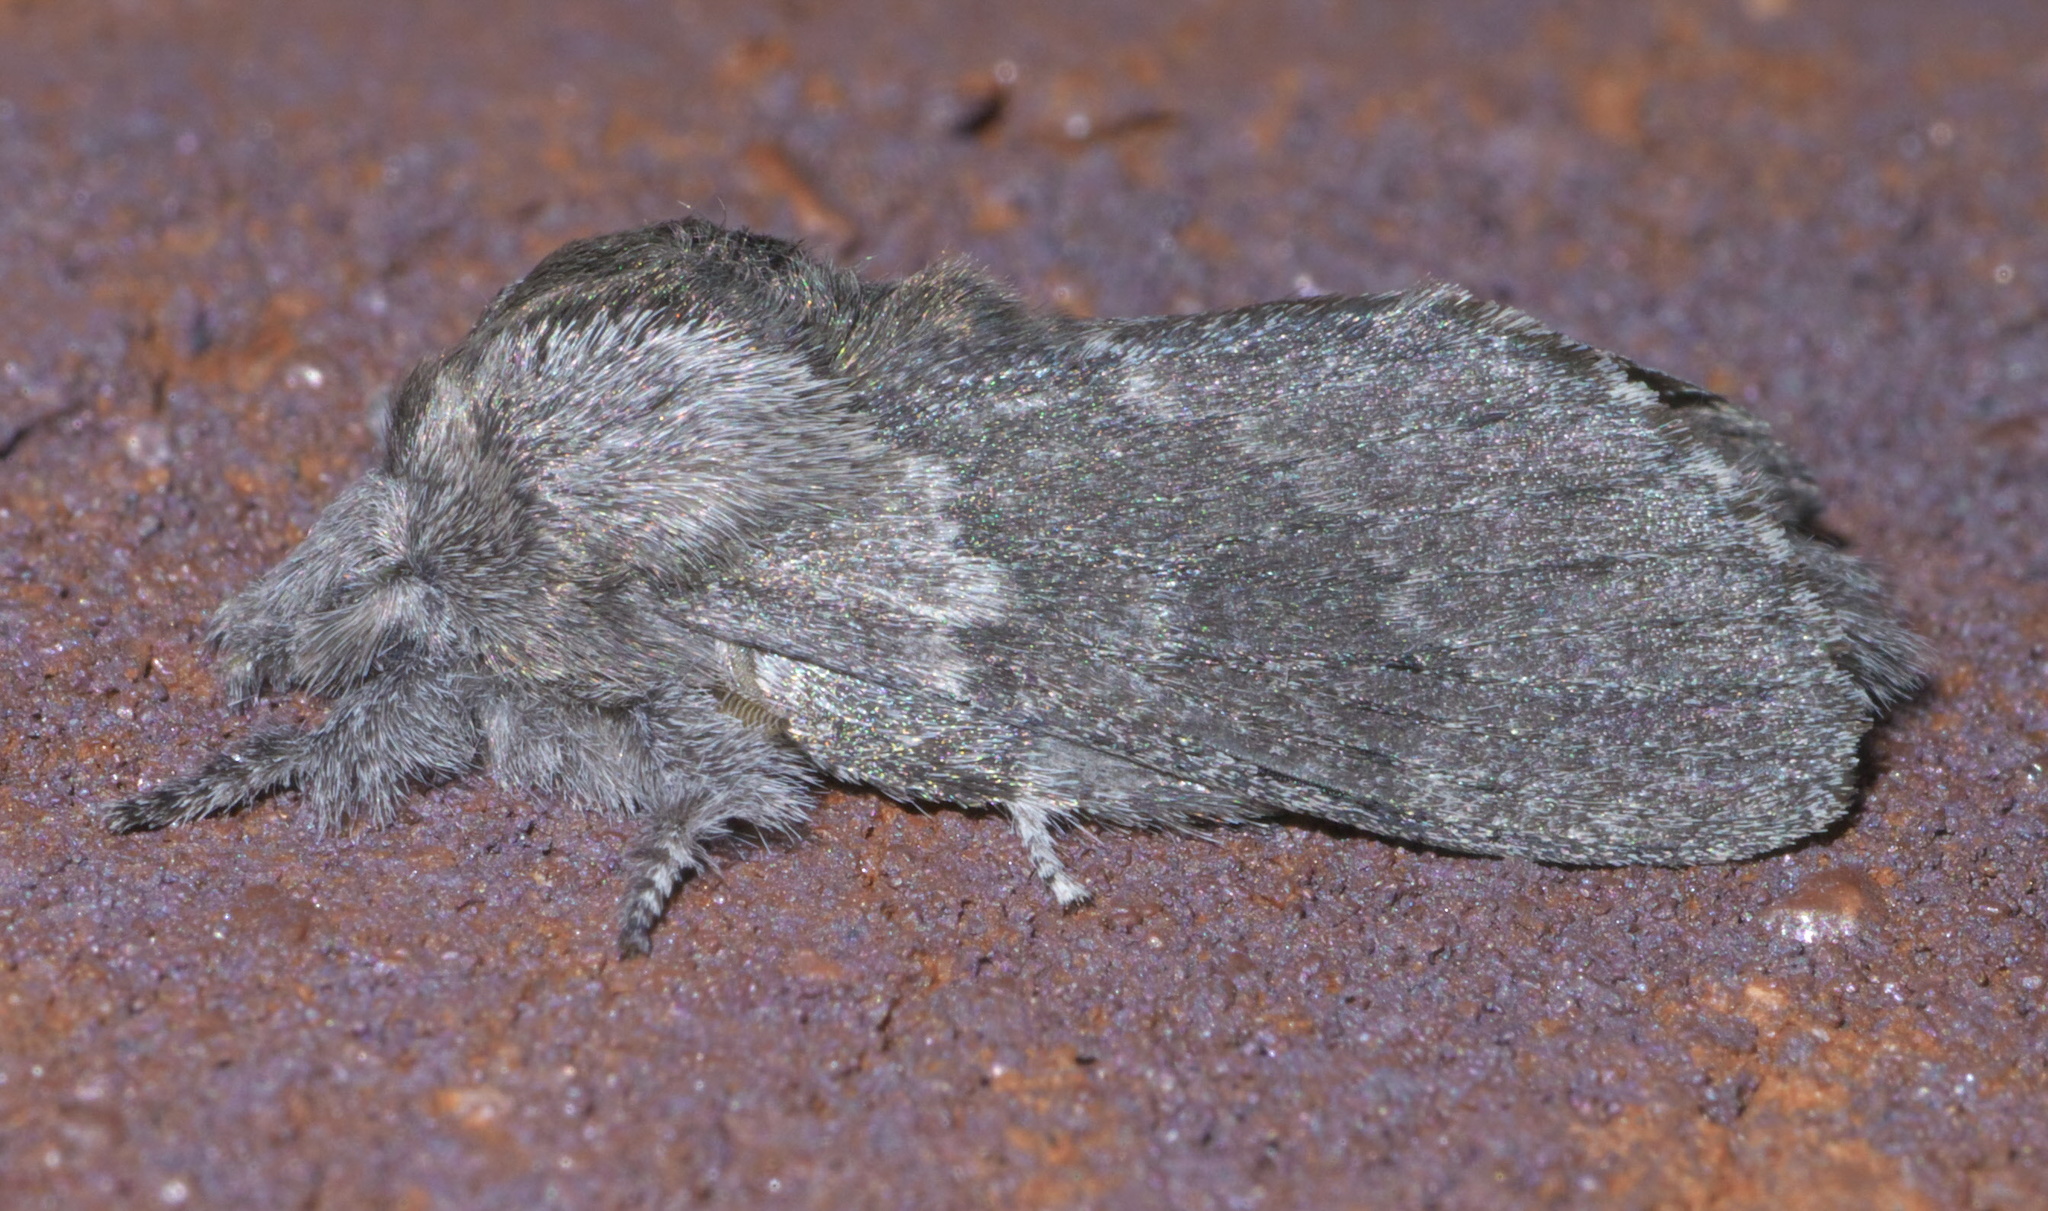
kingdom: Animalia
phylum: Arthropoda
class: Insecta
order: Lepidoptera
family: Lasiocampidae
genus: Heteropacha
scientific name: Heteropacha rileyana
